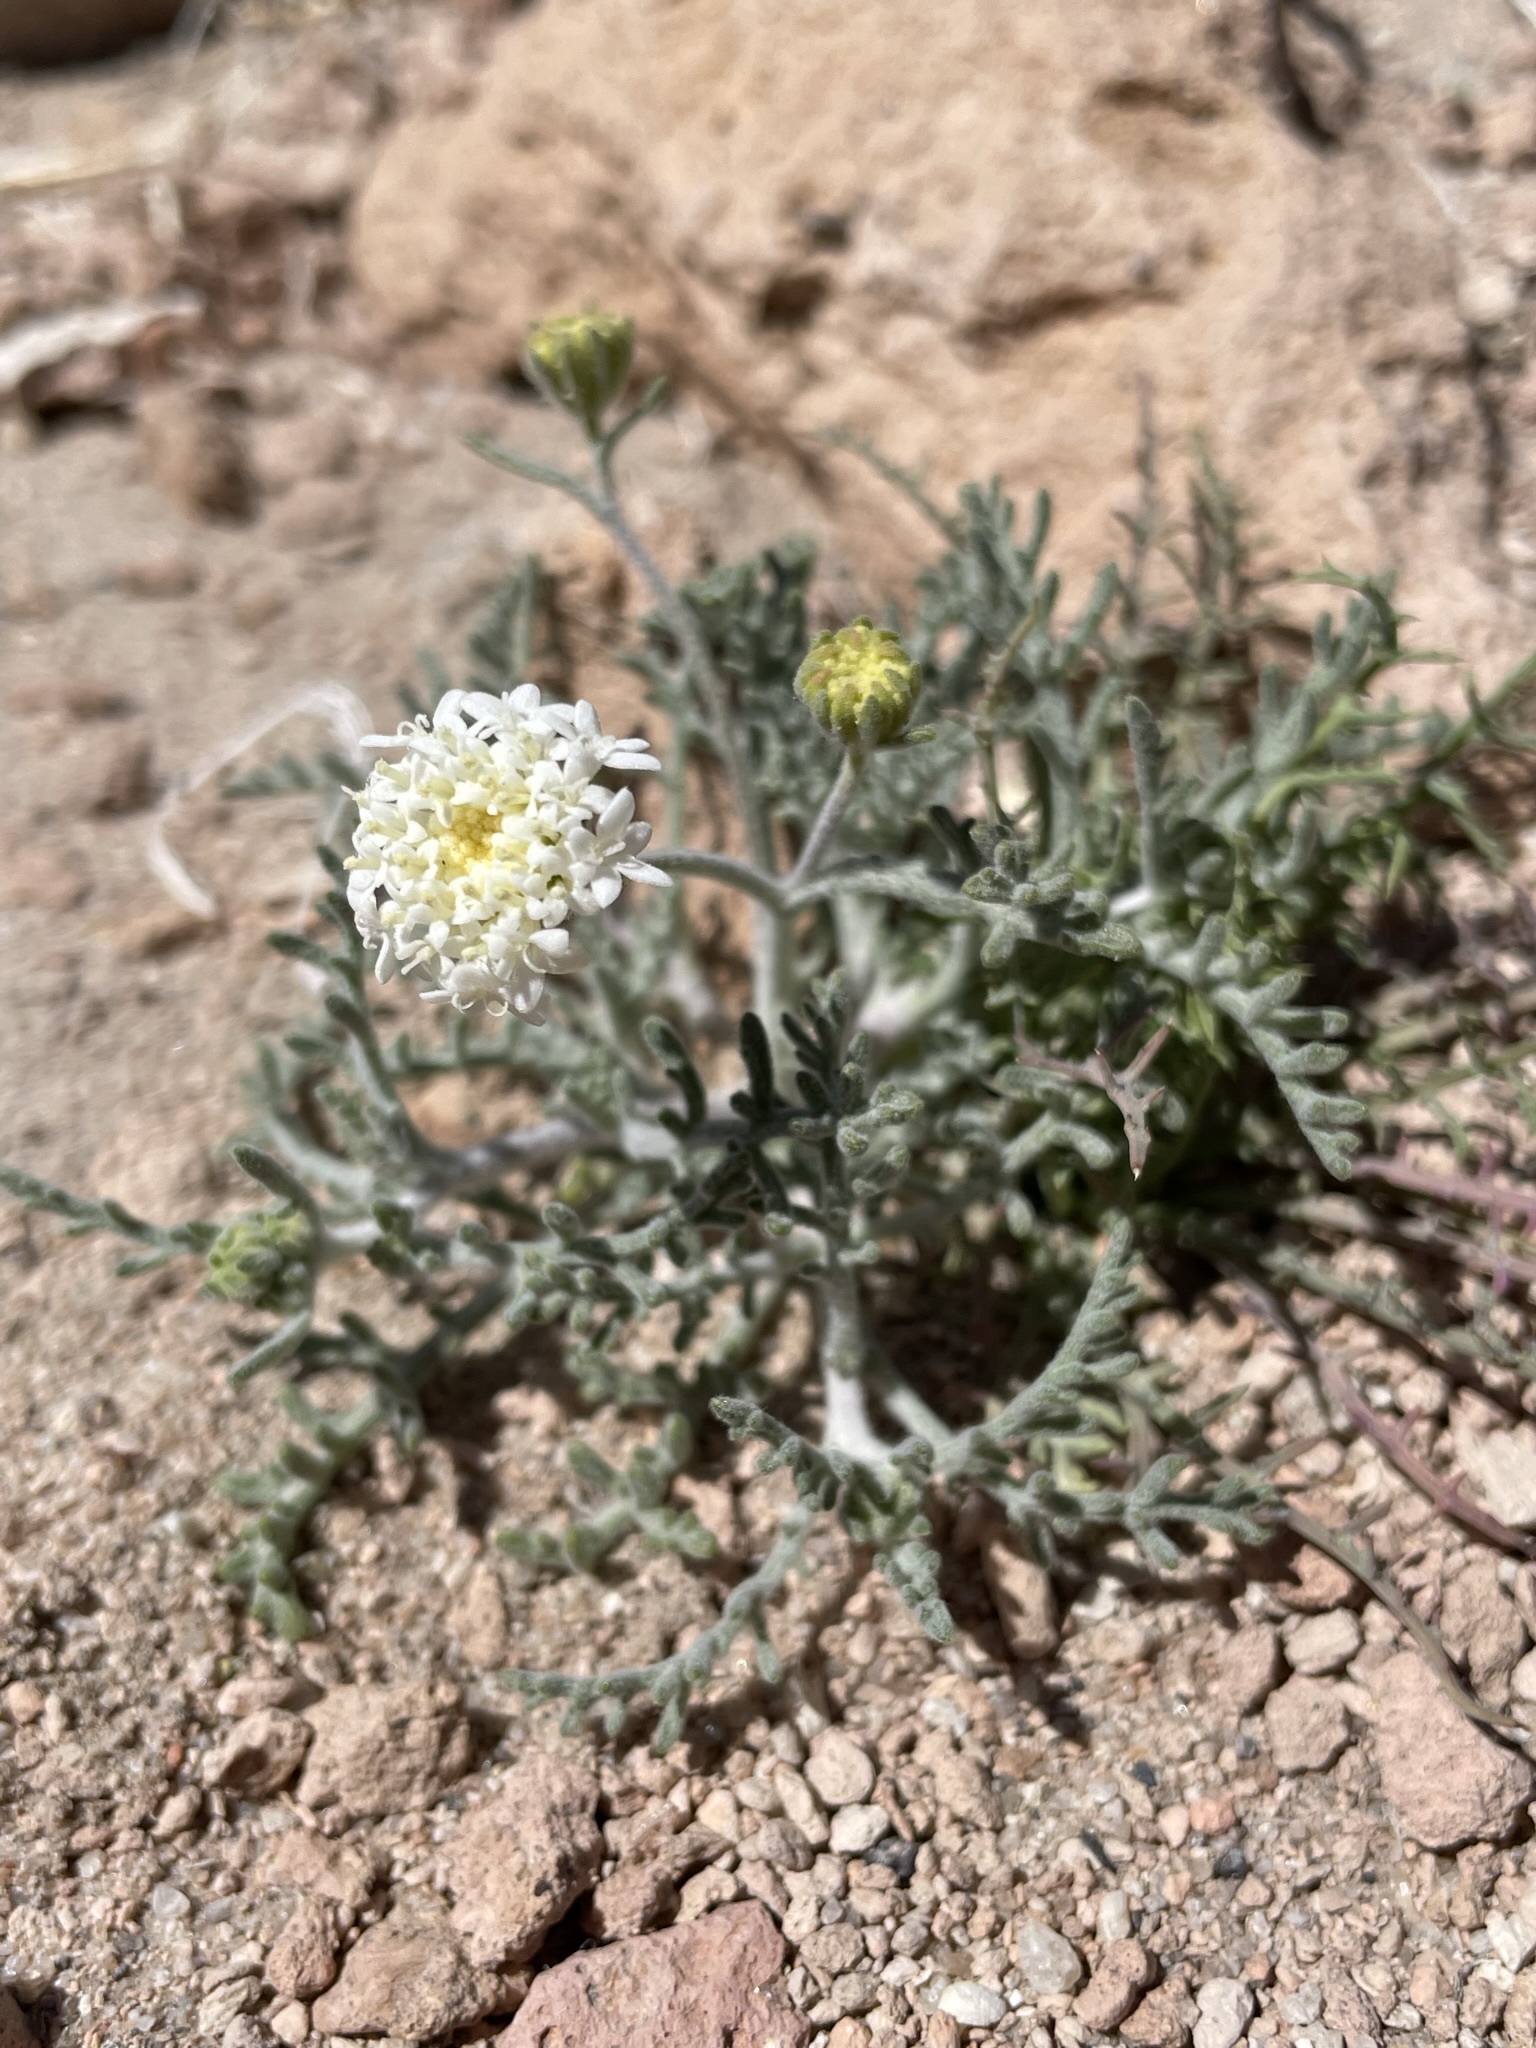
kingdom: Plantae
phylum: Tracheophyta
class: Magnoliopsida
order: Asterales
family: Asteraceae
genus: Chaenactis
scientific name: Chaenactis stevioides
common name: Desert pincushion
